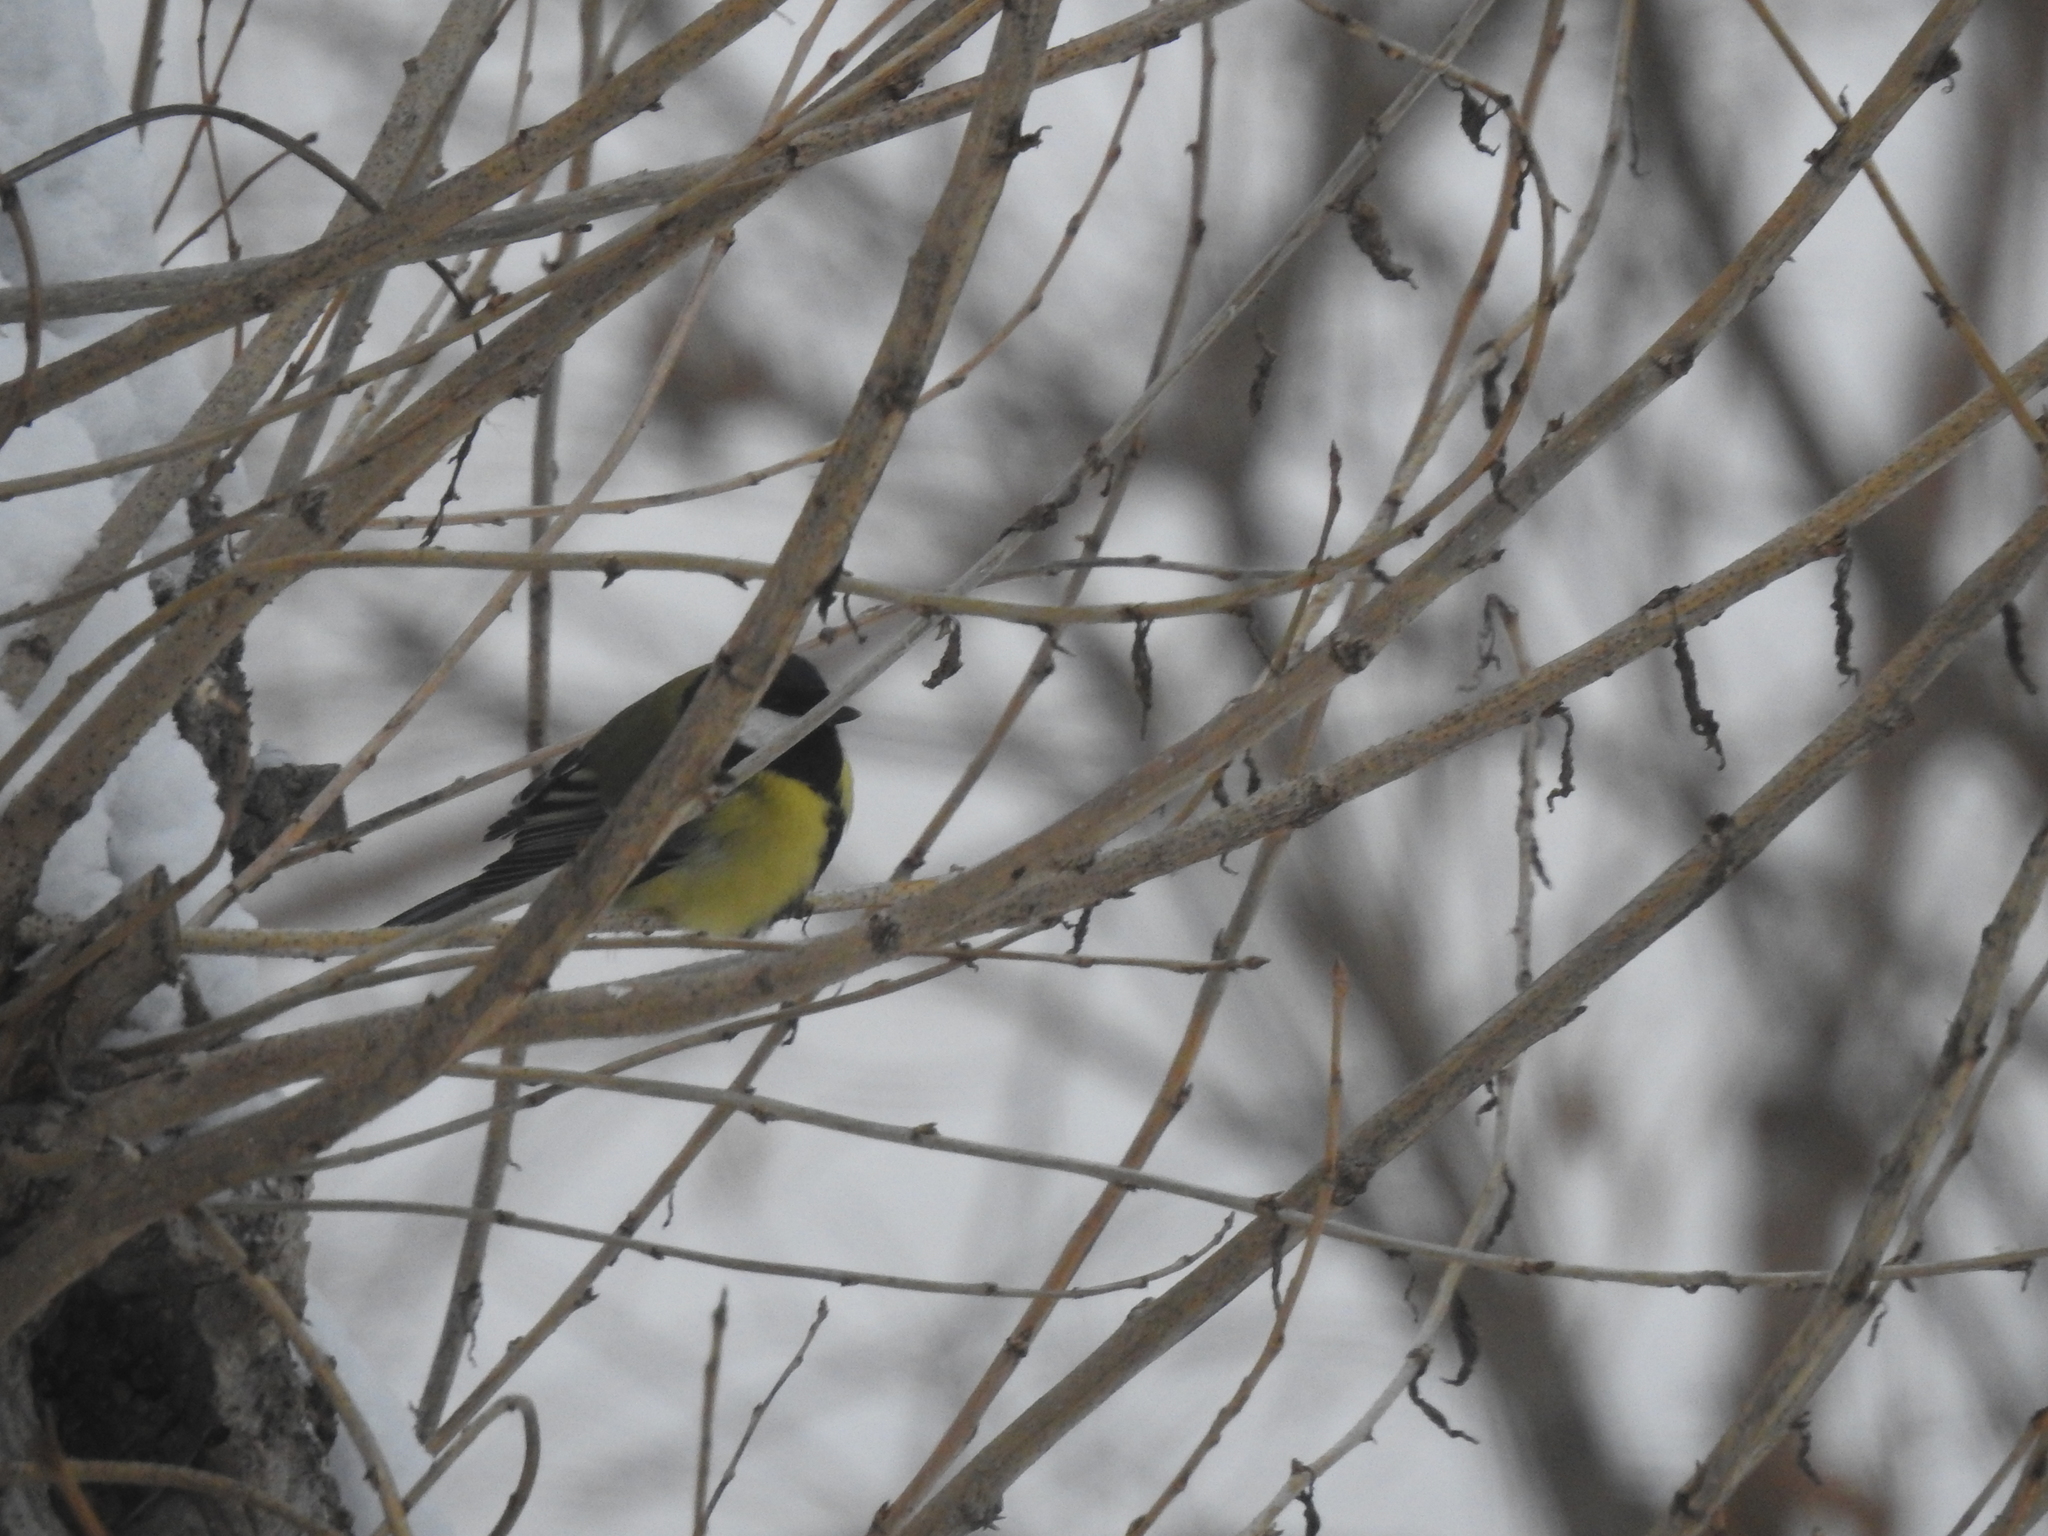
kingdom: Animalia
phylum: Chordata
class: Aves
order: Passeriformes
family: Paridae
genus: Parus
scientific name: Parus major
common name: Great tit
